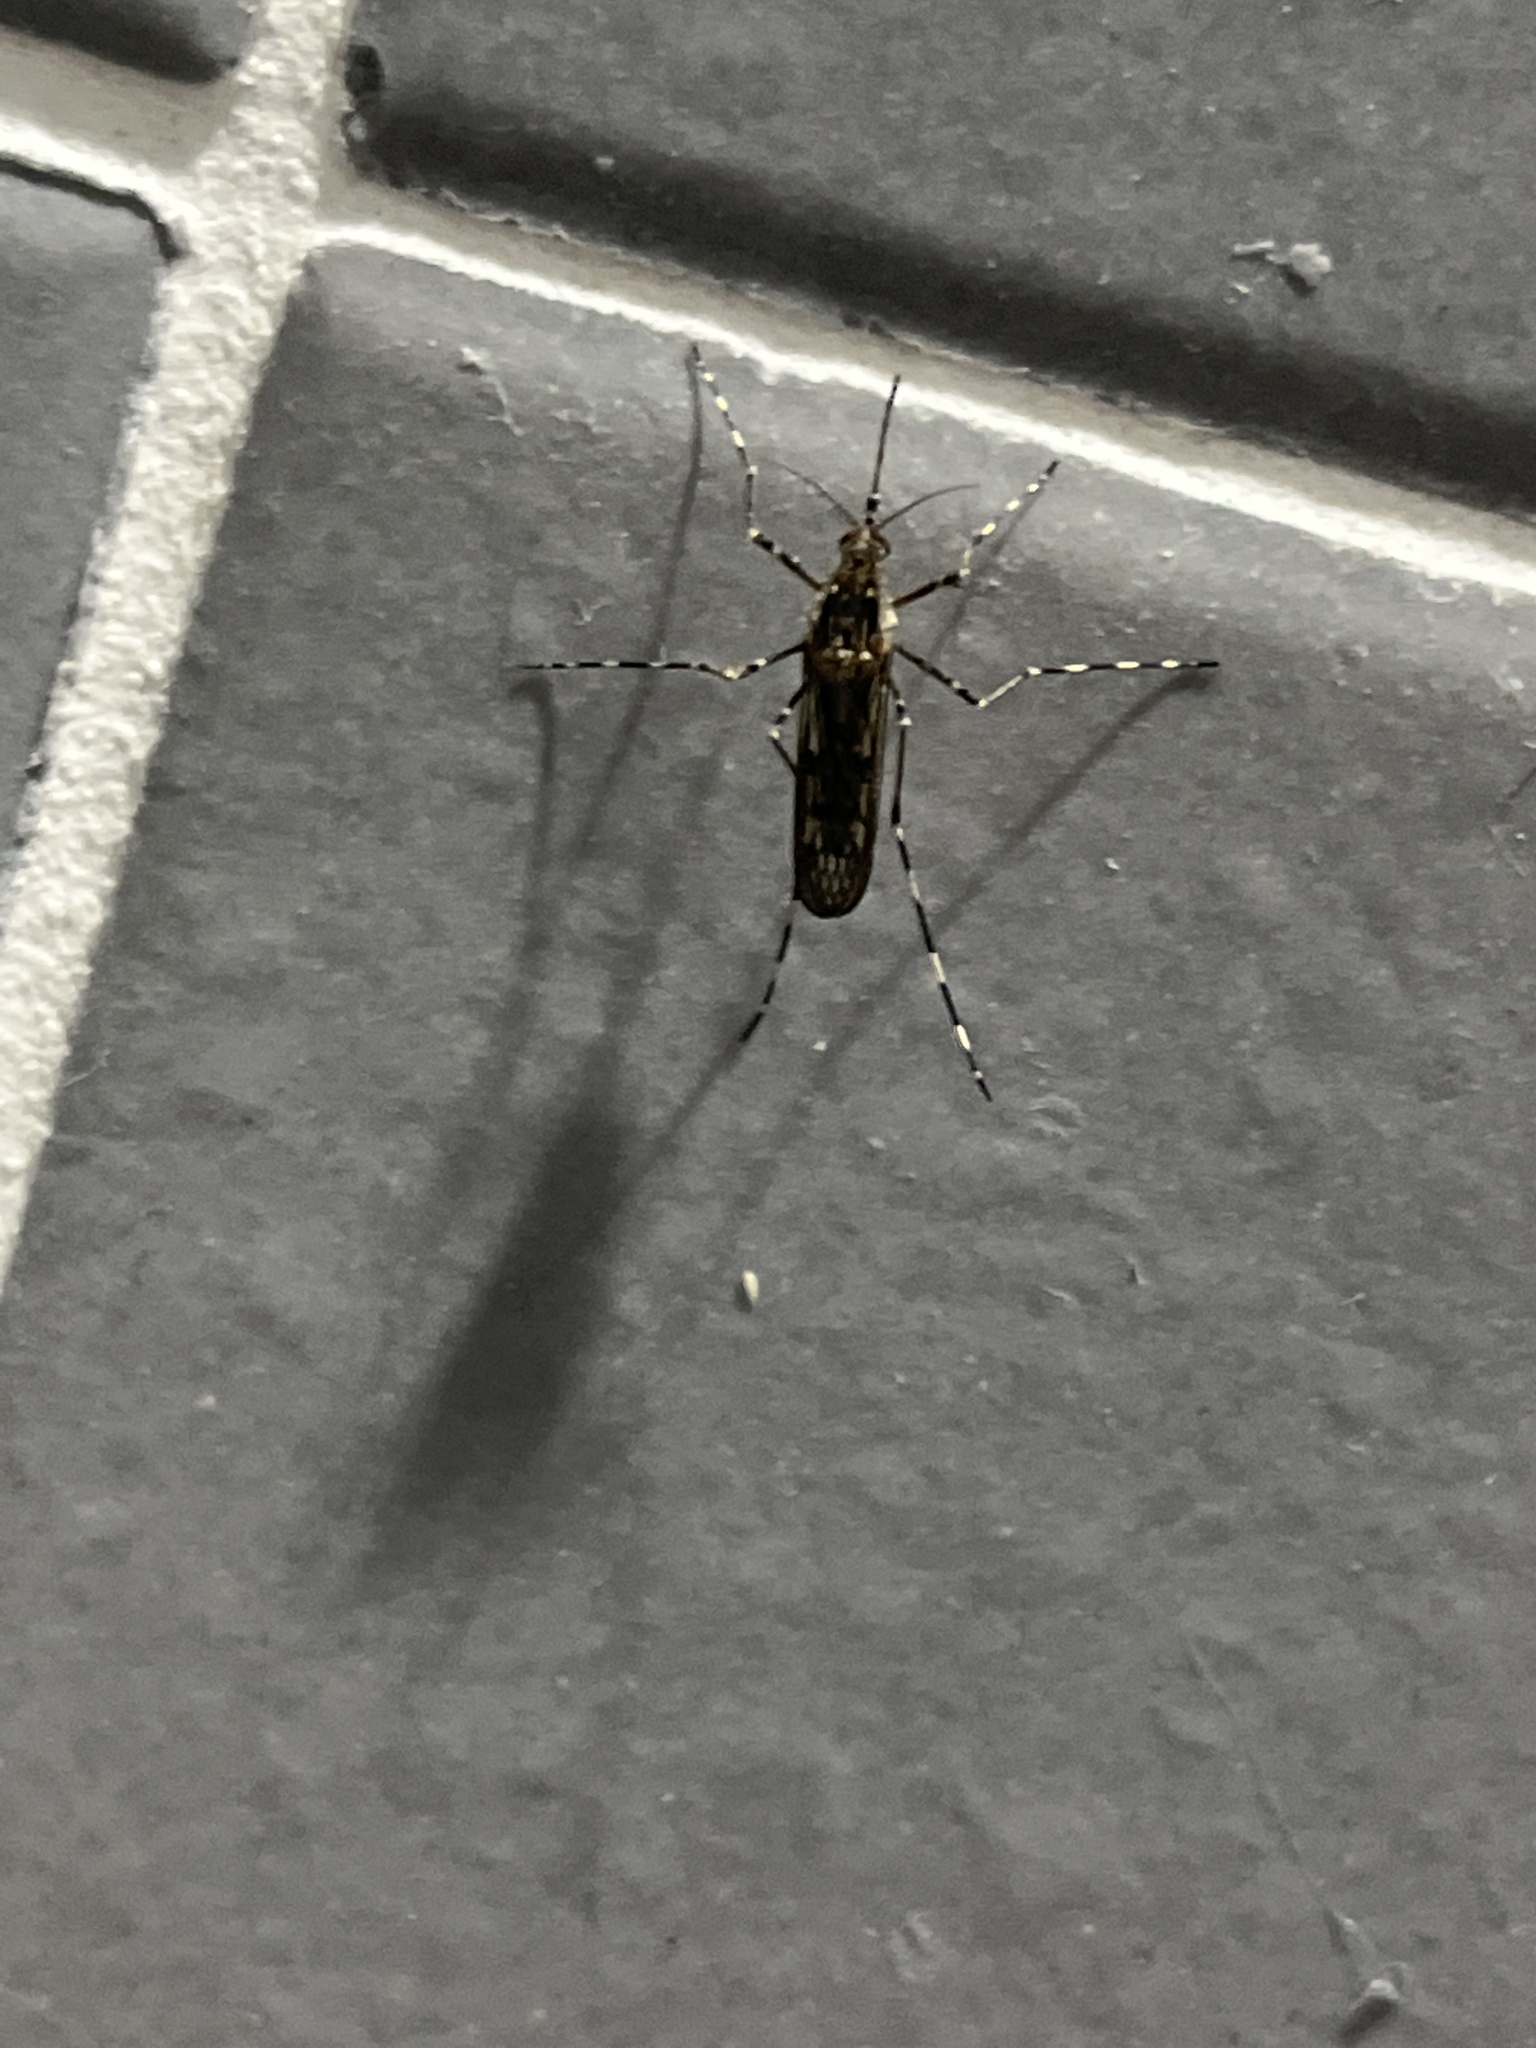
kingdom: Animalia
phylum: Arthropoda
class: Insecta
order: Diptera
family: Culicidae
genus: Culiseta
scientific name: Culiseta annulata
